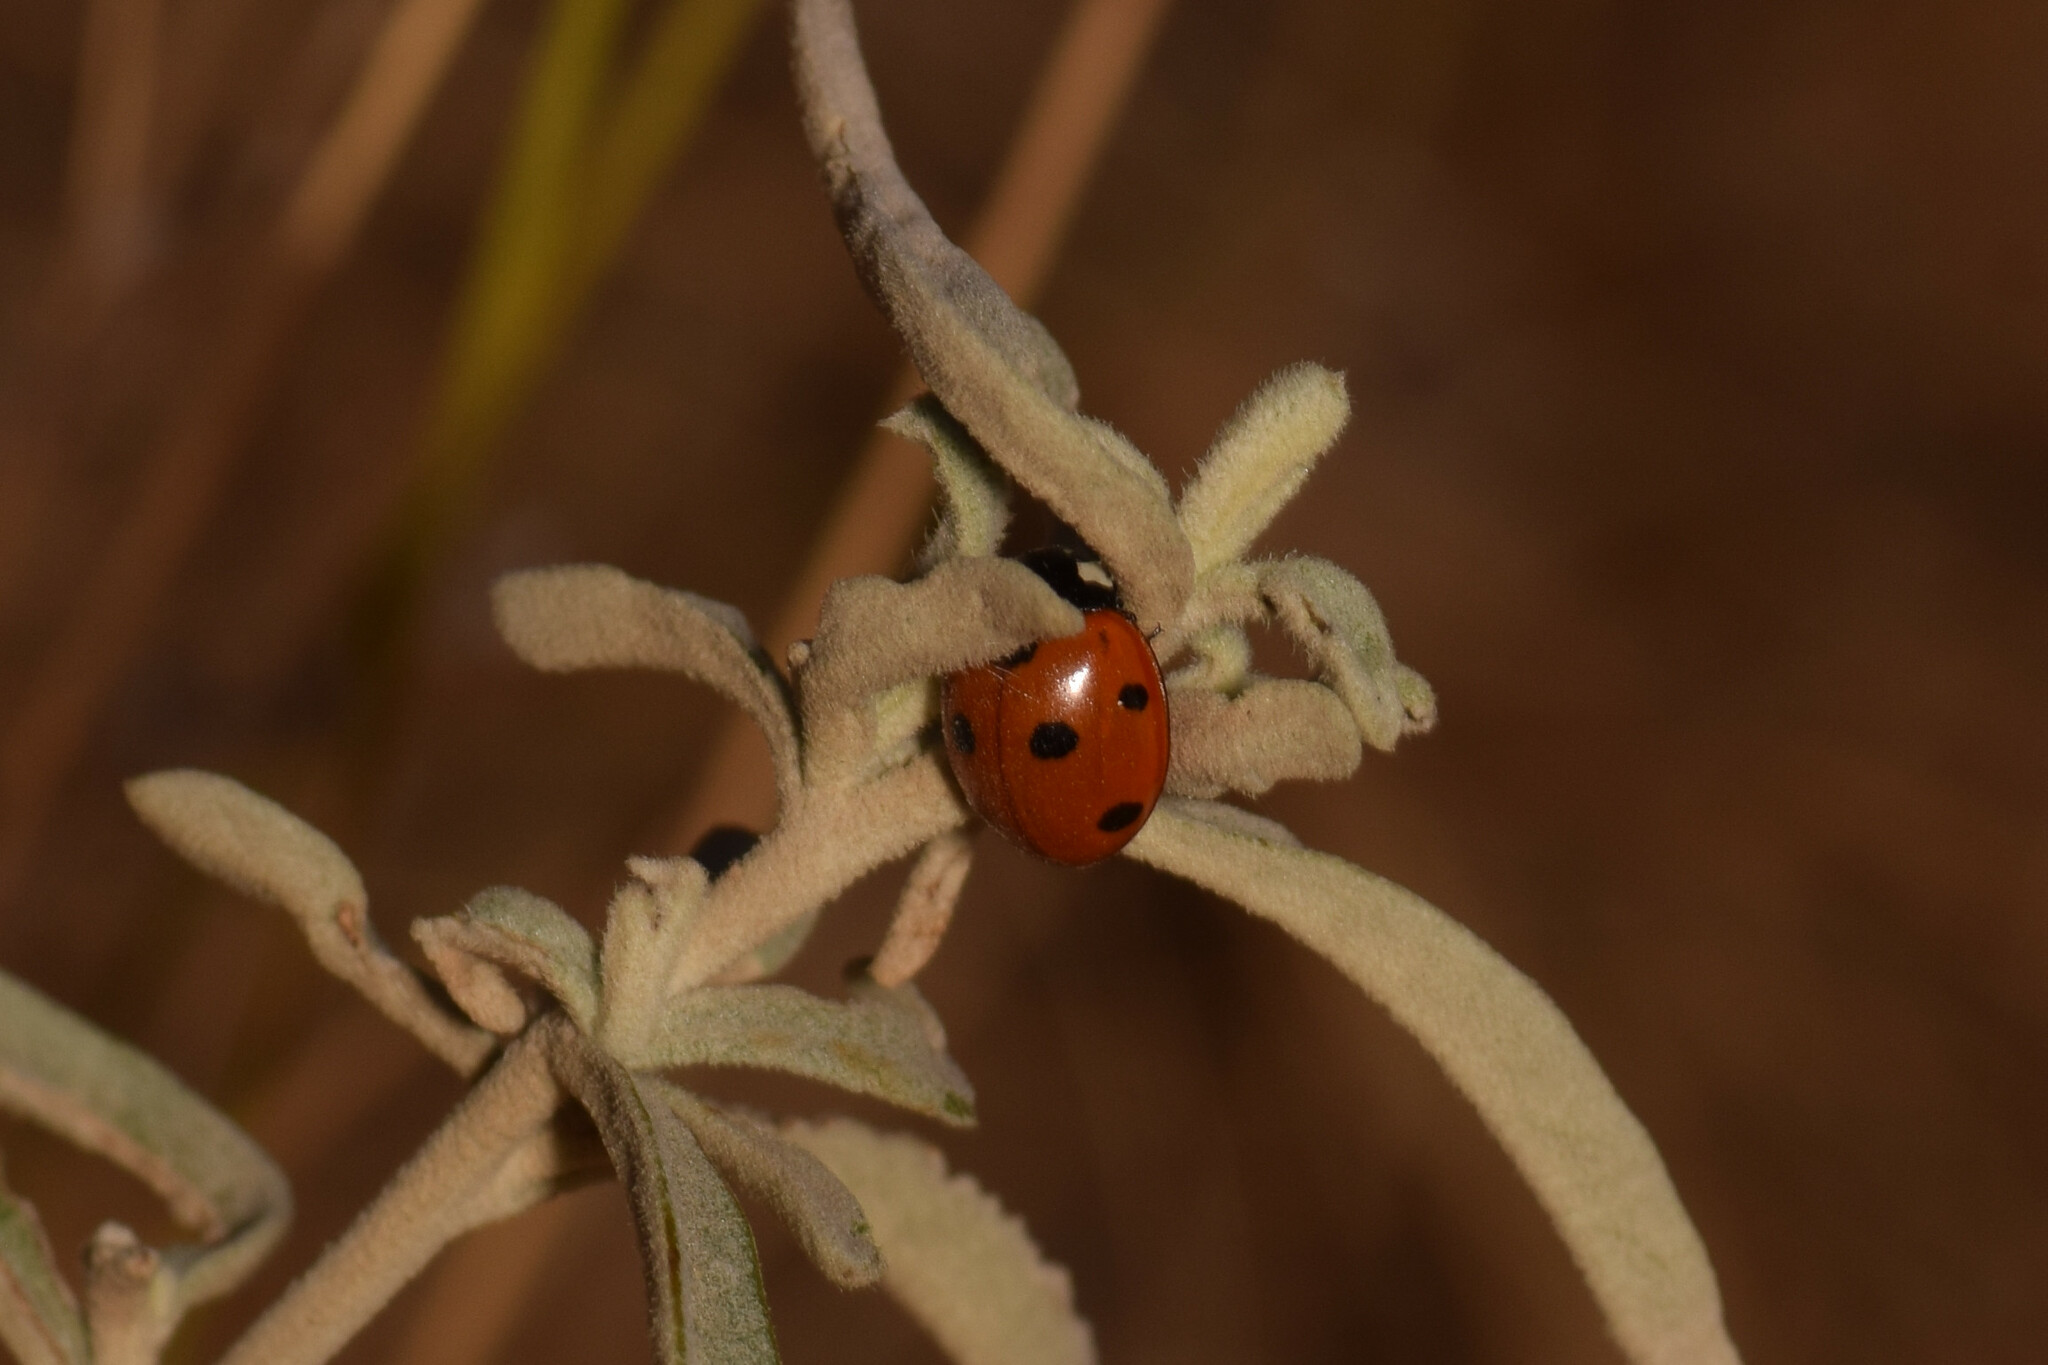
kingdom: Animalia
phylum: Arthropoda
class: Insecta
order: Coleoptera
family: Coccinellidae
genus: Coccinella
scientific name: Coccinella septempunctata
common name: Sevenspotted lady beetle
